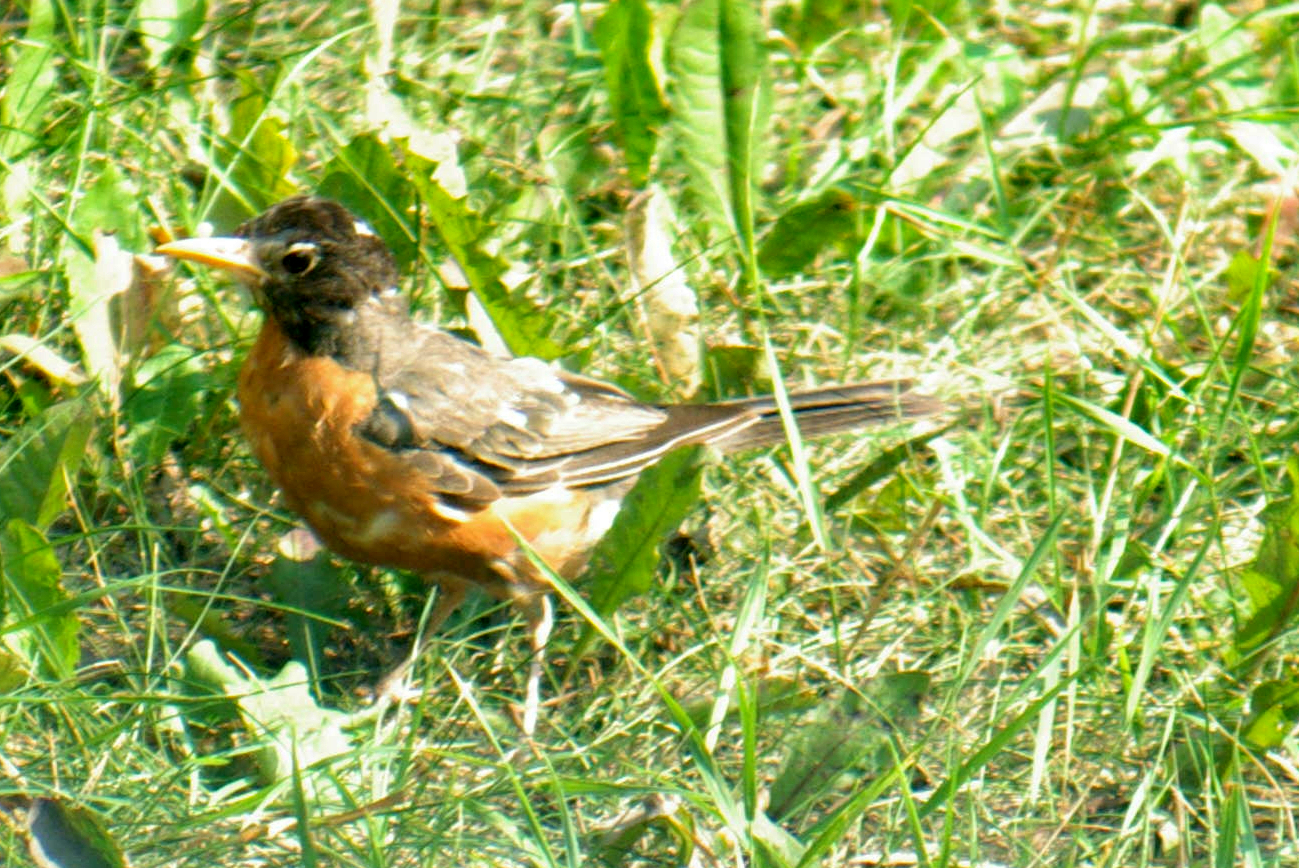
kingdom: Animalia
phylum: Chordata
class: Aves
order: Passeriformes
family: Turdidae
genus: Turdus
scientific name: Turdus migratorius
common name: American robin
